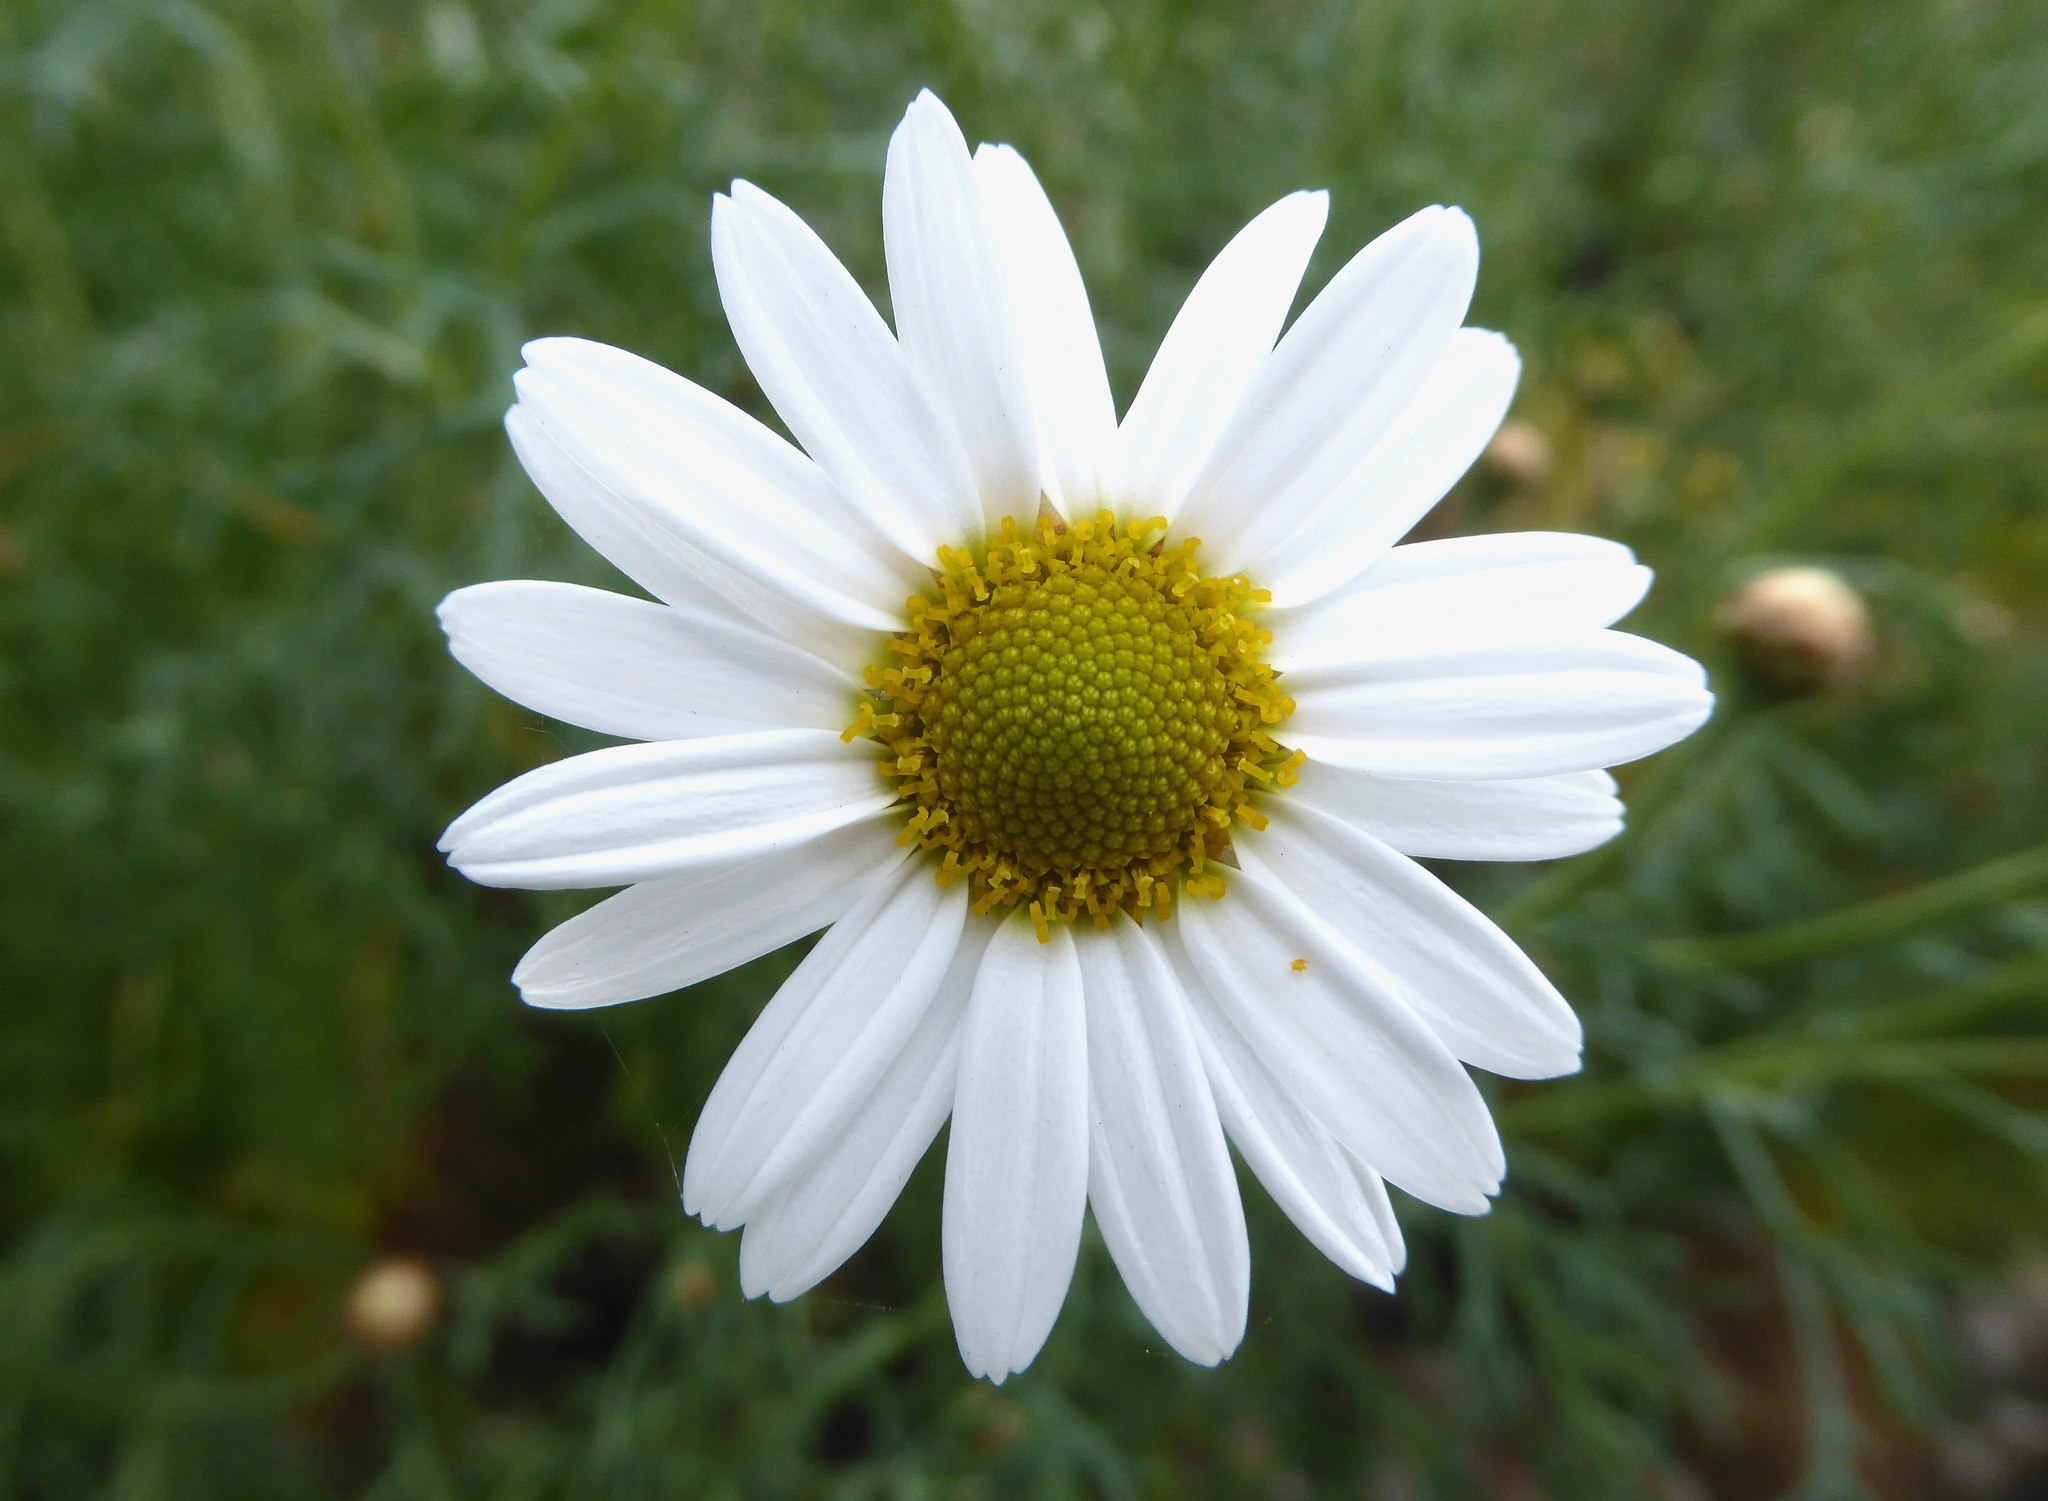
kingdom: Plantae
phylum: Tracheophyta
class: Magnoliopsida
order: Asterales
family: Asteraceae
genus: Argyranthemum
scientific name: Argyranthemum foeniculaceum
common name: Canary island marguerite
